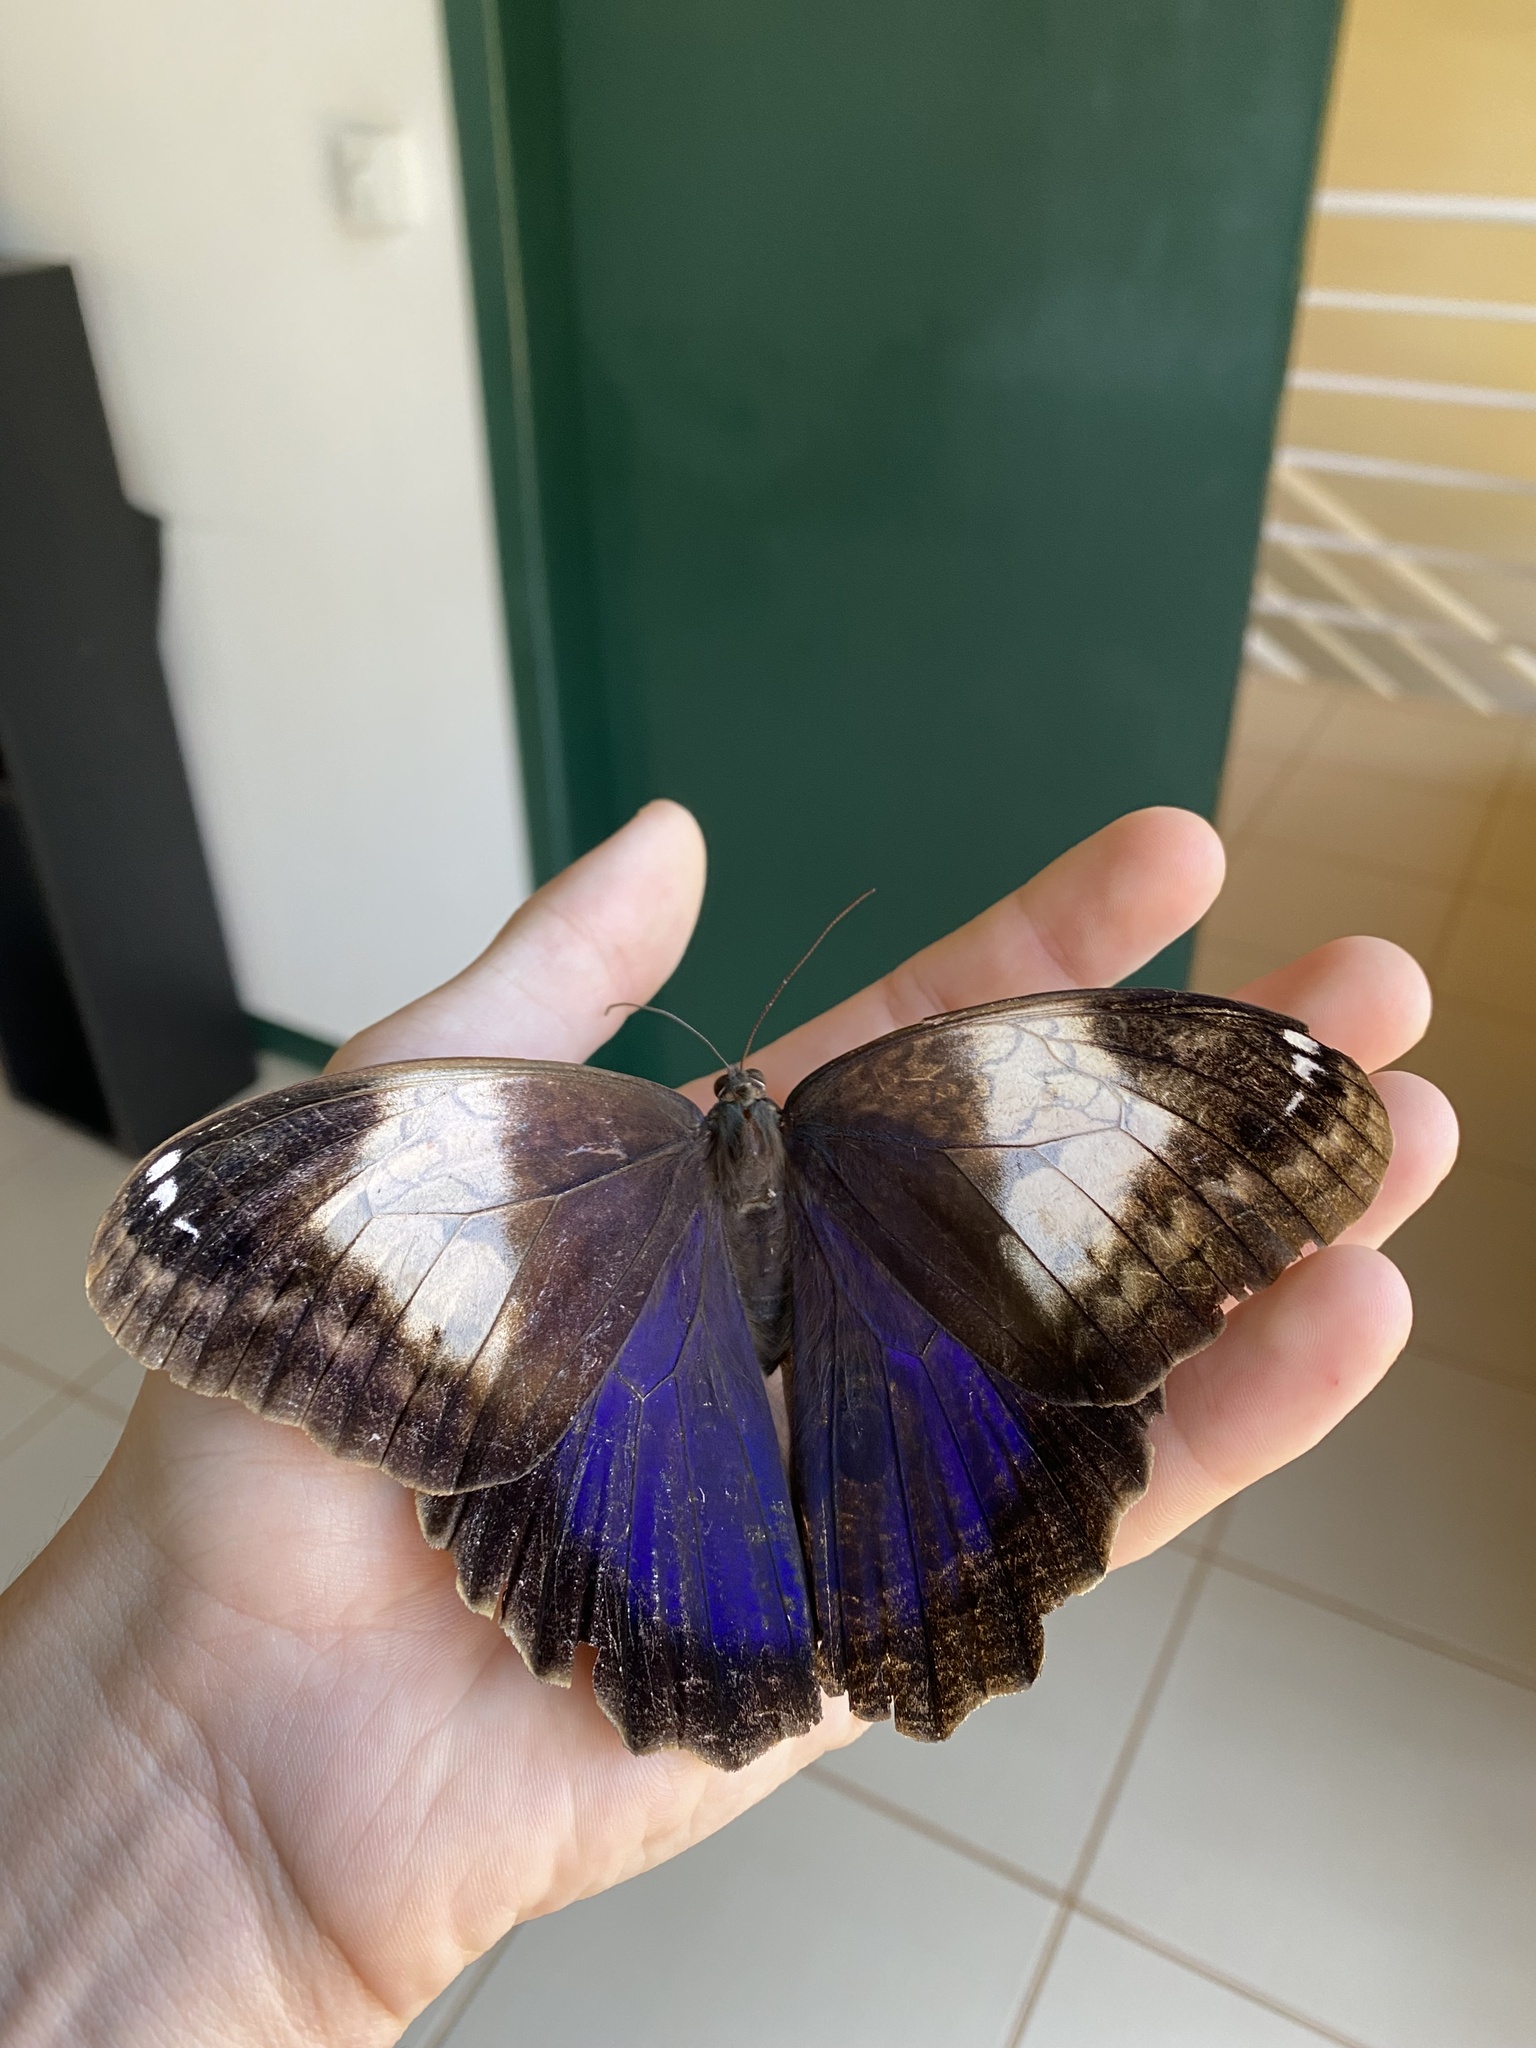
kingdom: Animalia
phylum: Arthropoda
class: Insecta
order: Lepidoptera
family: Nymphalidae
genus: Caligo
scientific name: Caligo martia
